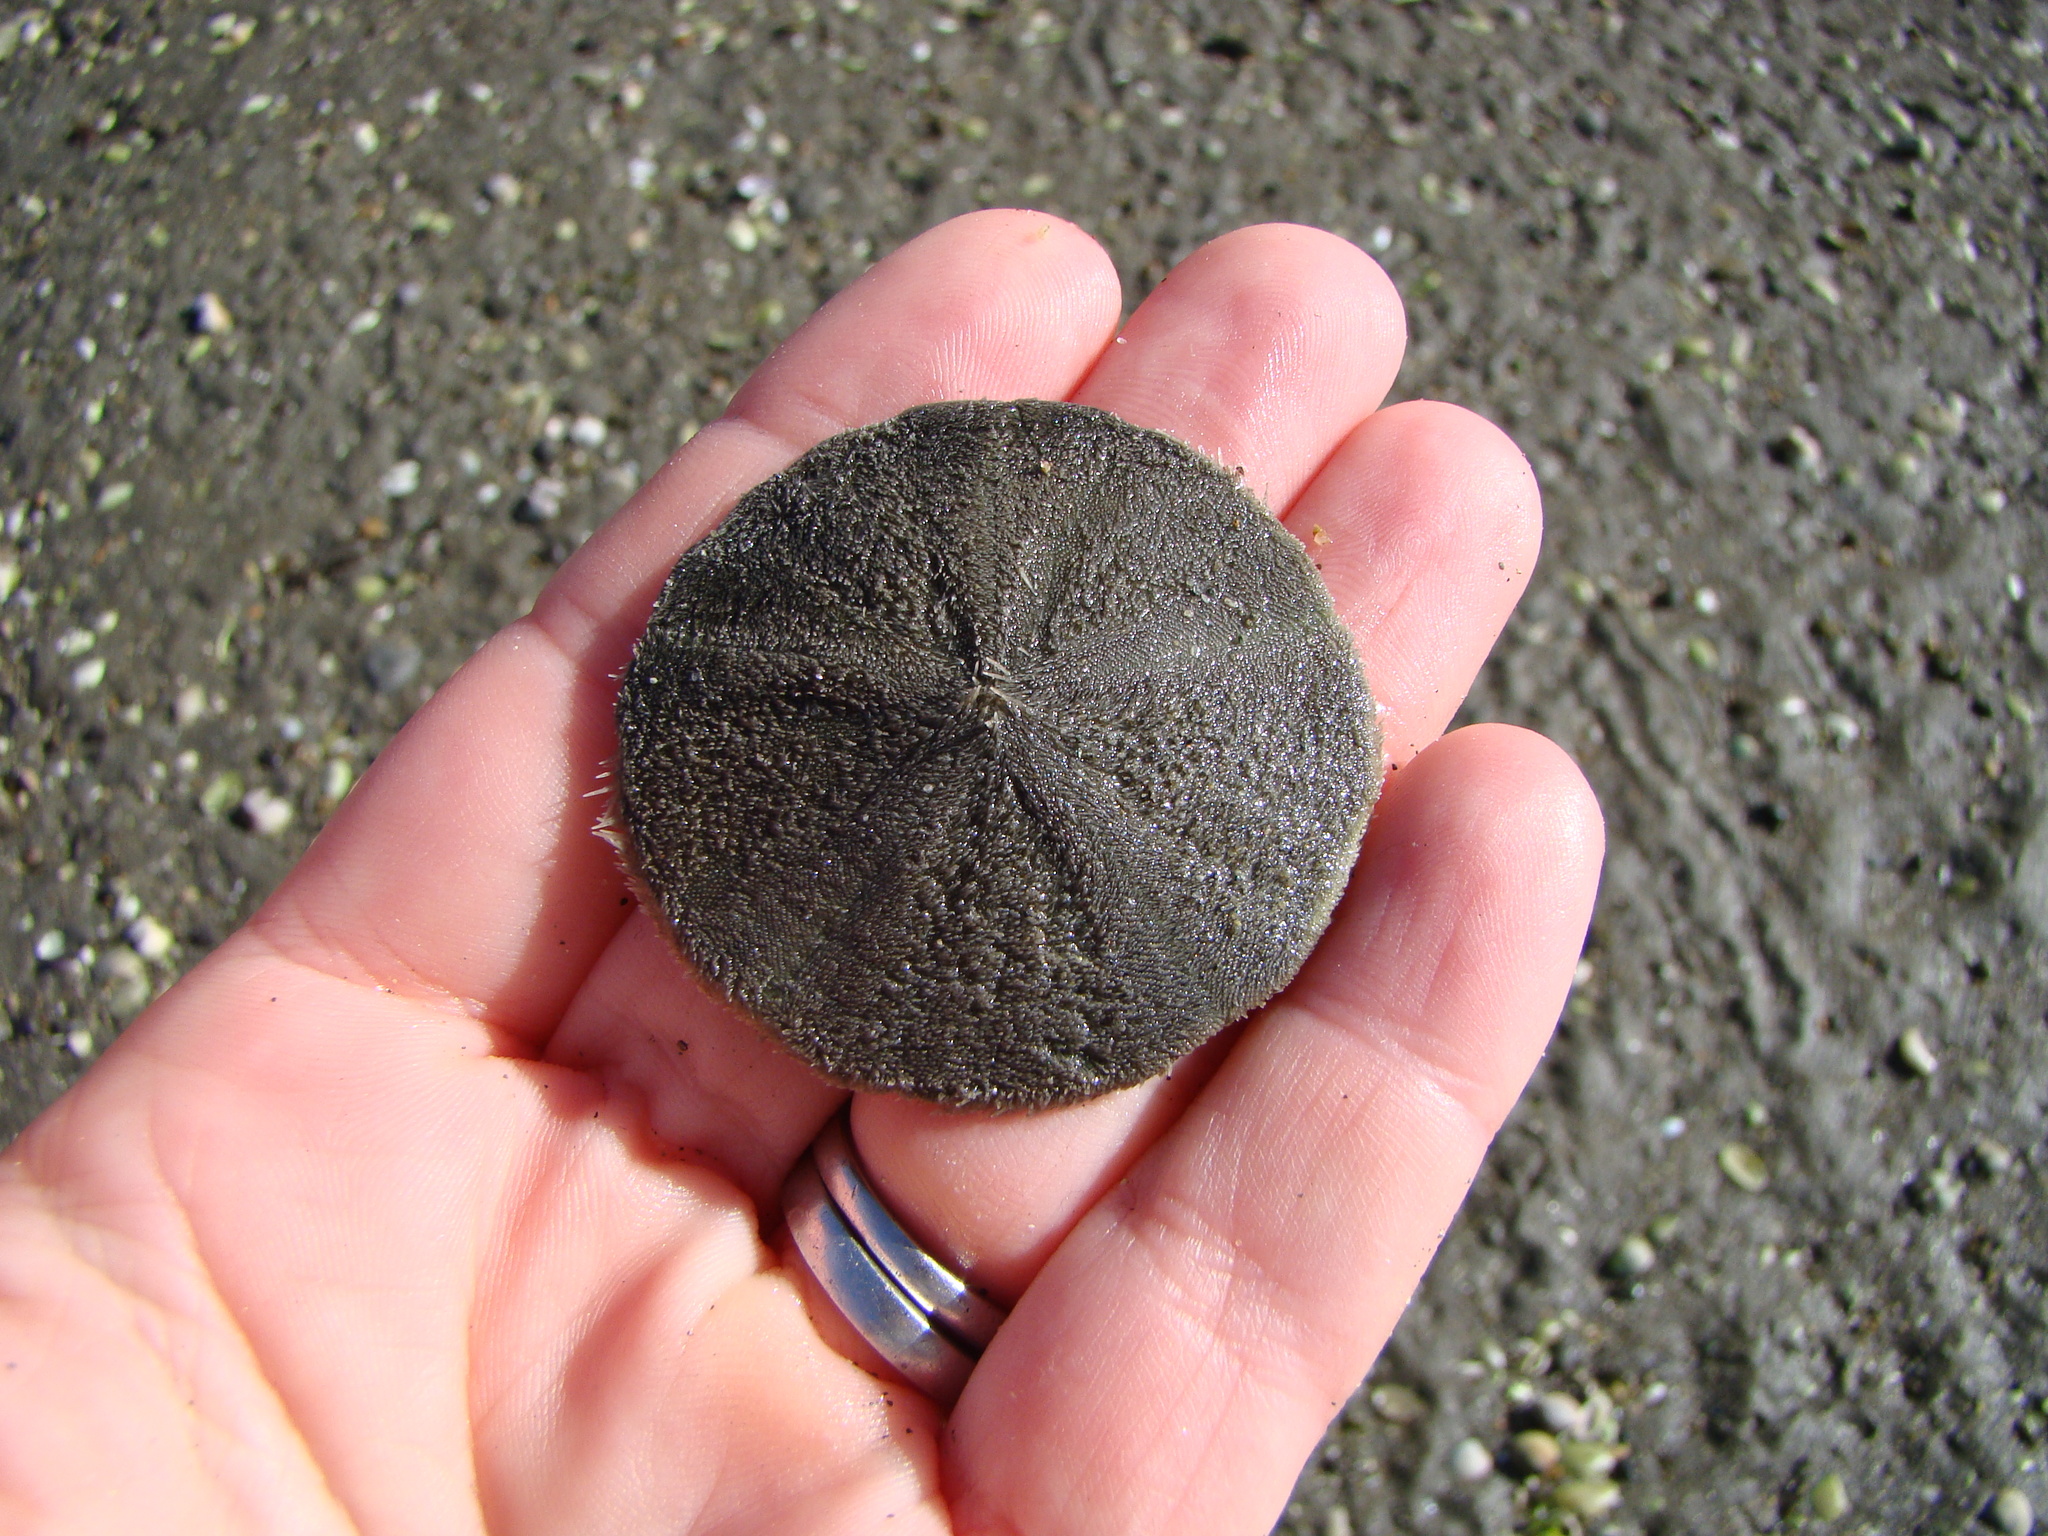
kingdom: Animalia
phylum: Echinodermata
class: Echinoidea
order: Clypeasteroida
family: Clypeasteridae
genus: Fellaster
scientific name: Fellaster zelandiae
